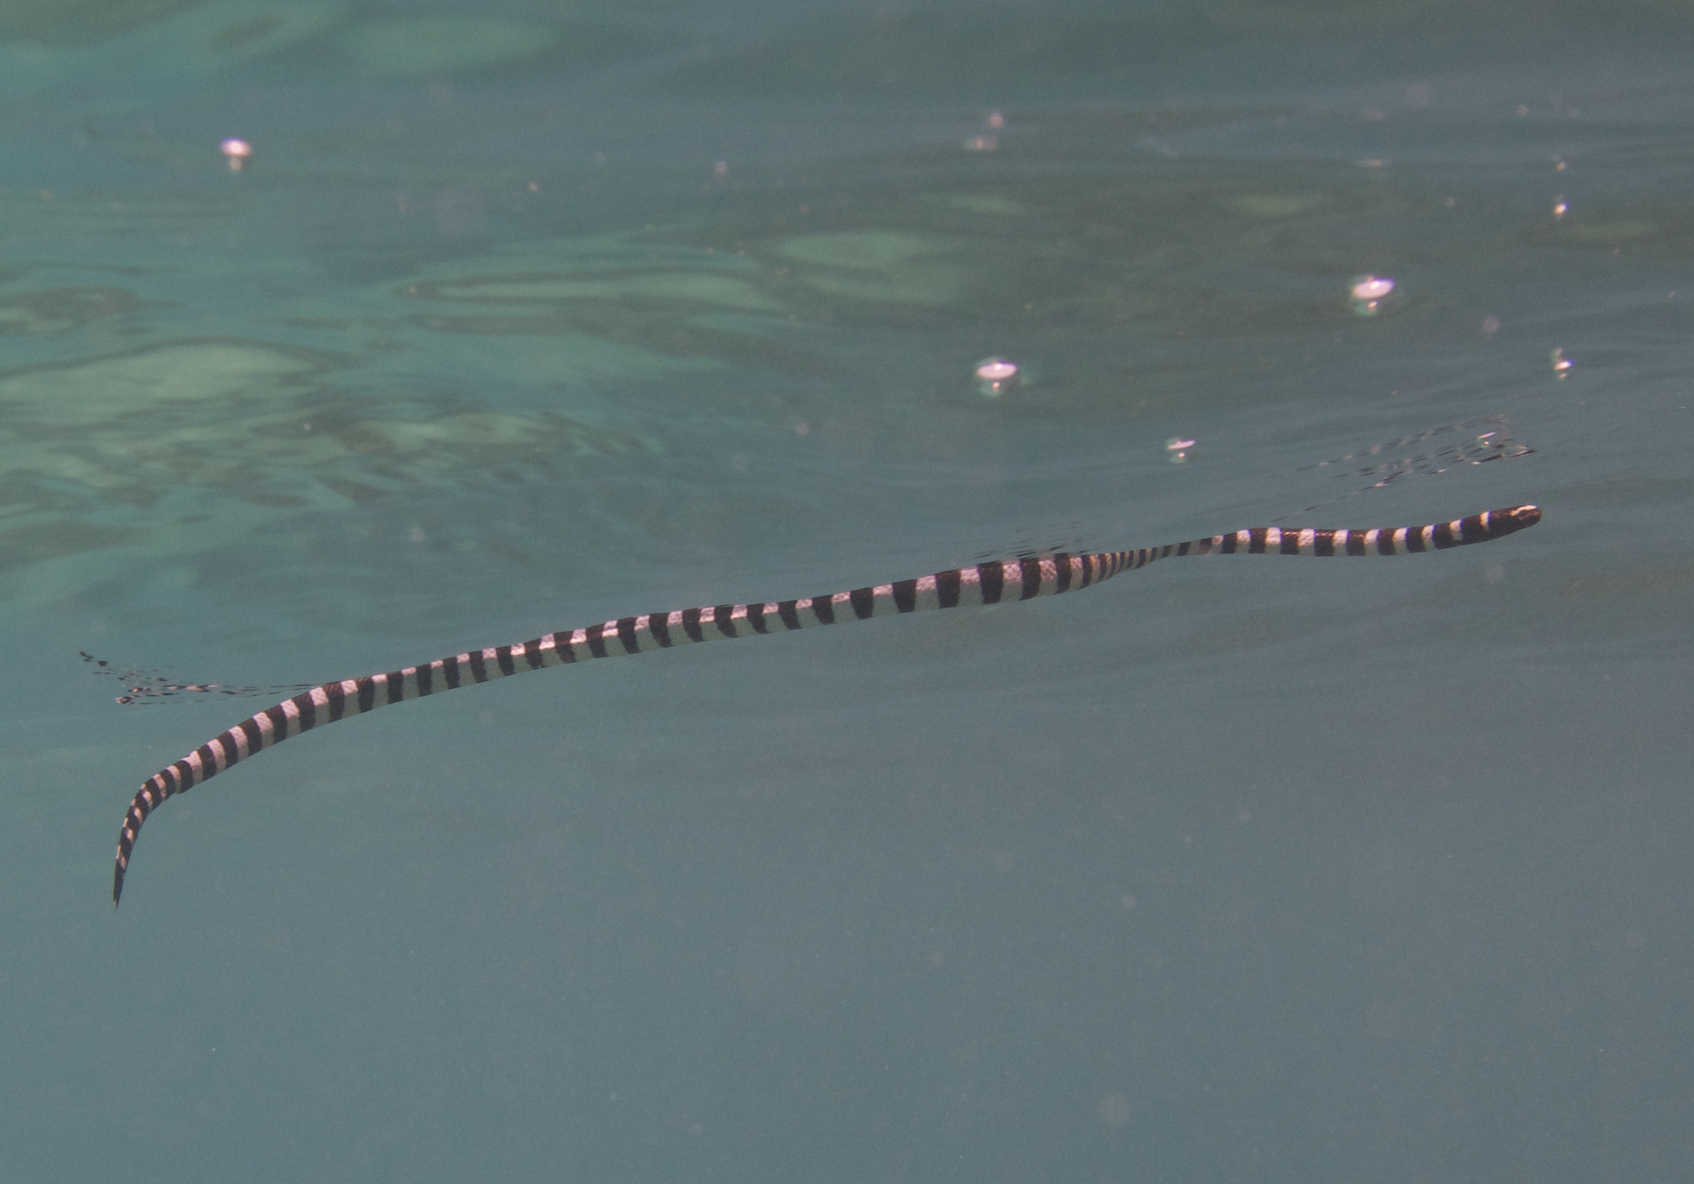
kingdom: Animalia
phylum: Chordata
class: Squamata
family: Elapidae
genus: Laticauda
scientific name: Laticauda laticaudata
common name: Blue-banded sea krait
